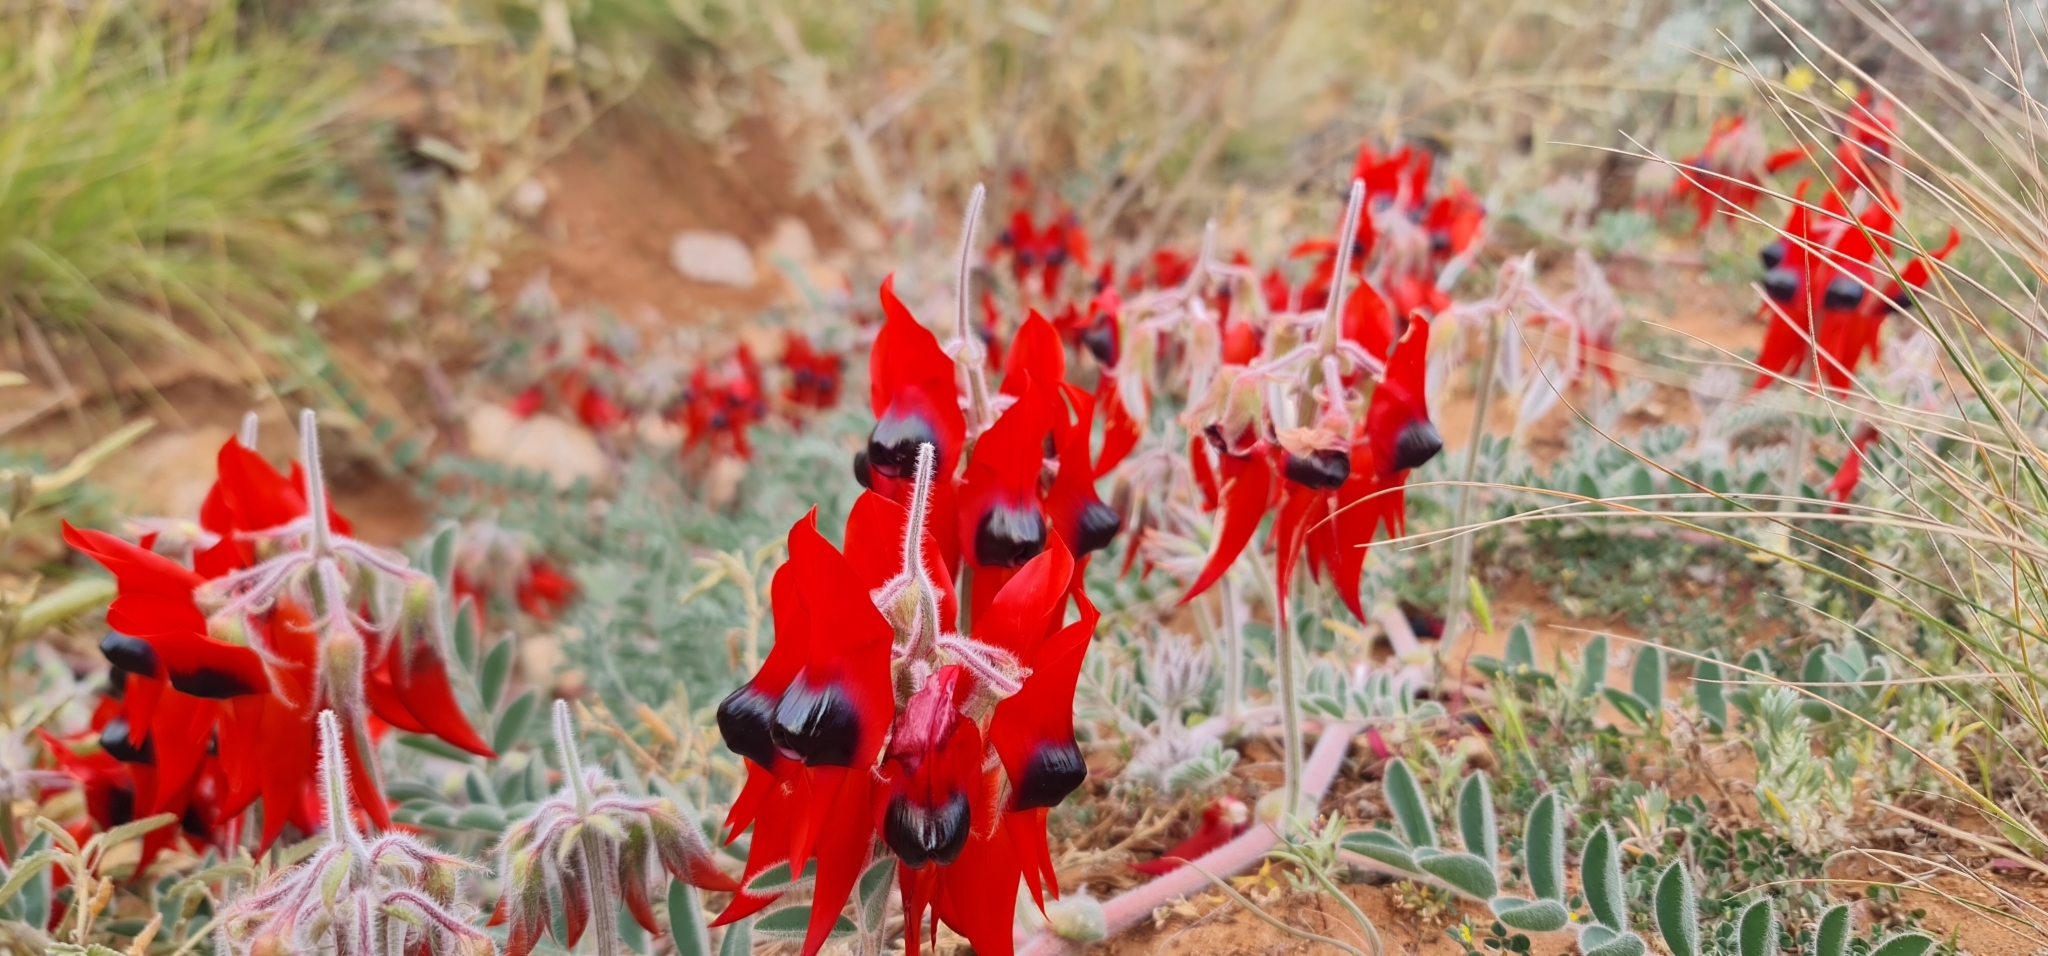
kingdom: Plantae
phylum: Tracheophyta
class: Magnoliopsida
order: Fabales
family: Fabaceae
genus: Swainsona
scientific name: Swainsona formosa
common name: Sturt's desert-pea
